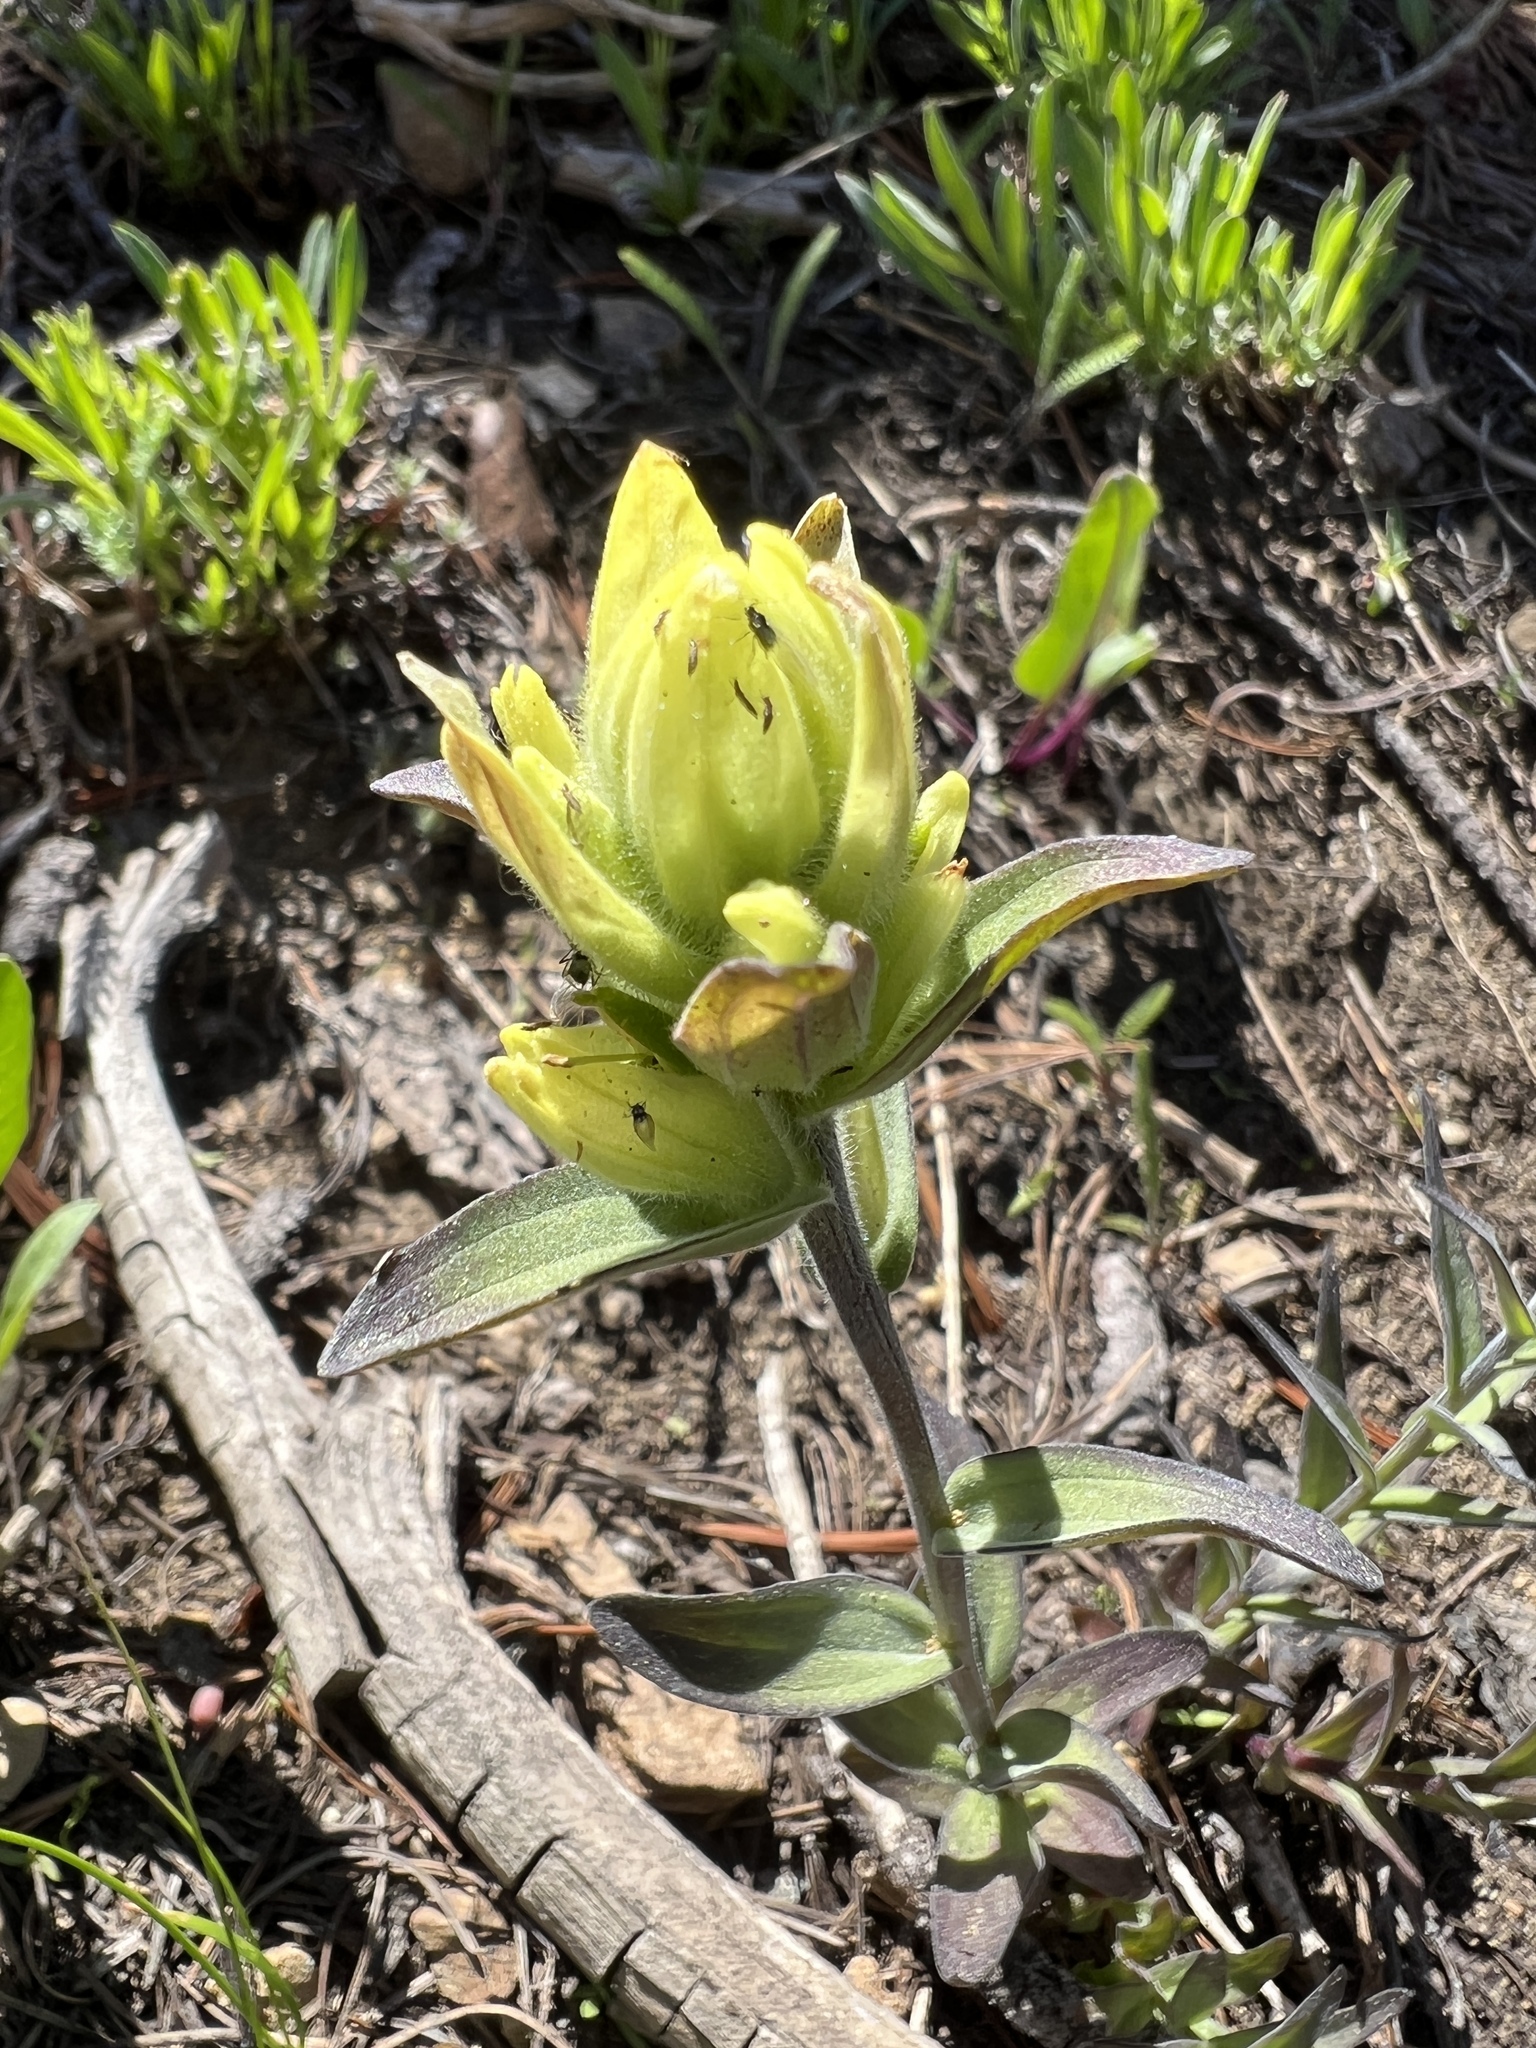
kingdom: Plantae
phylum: Tracheophyta
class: Magnoliopsida
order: Lamiales
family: Orobanchaceae
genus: Castilleja
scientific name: Castilleja elmeri
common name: Elmer's paintbrush
